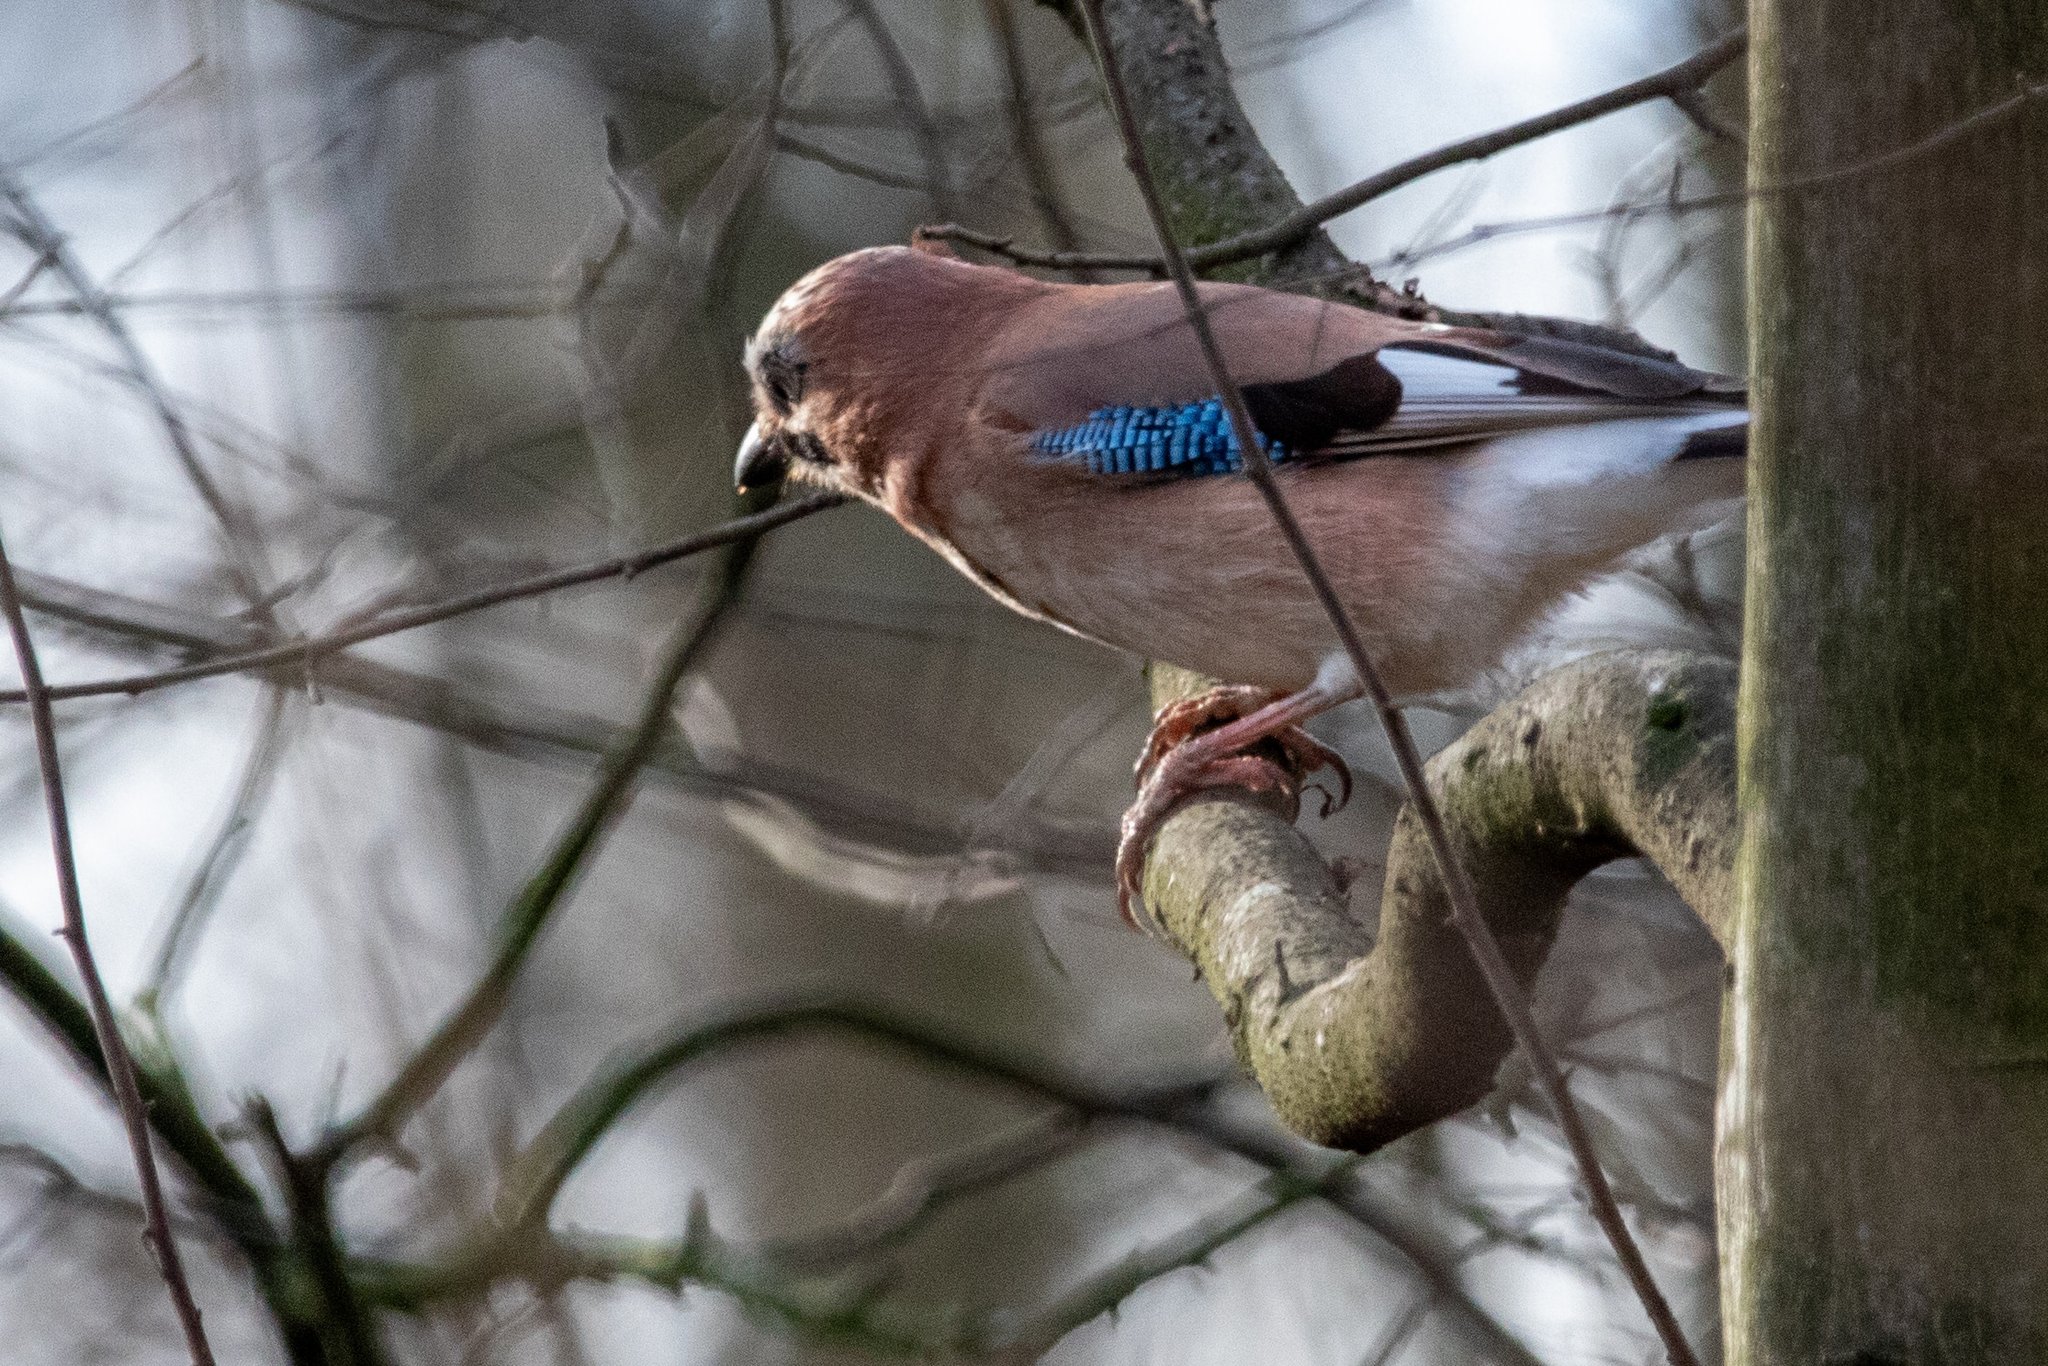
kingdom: Animalia
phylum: Chordata
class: Aves
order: Passeriformes
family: Corvidae
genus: Garrulus
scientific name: Garrulus glandarius
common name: Eurasian jay
